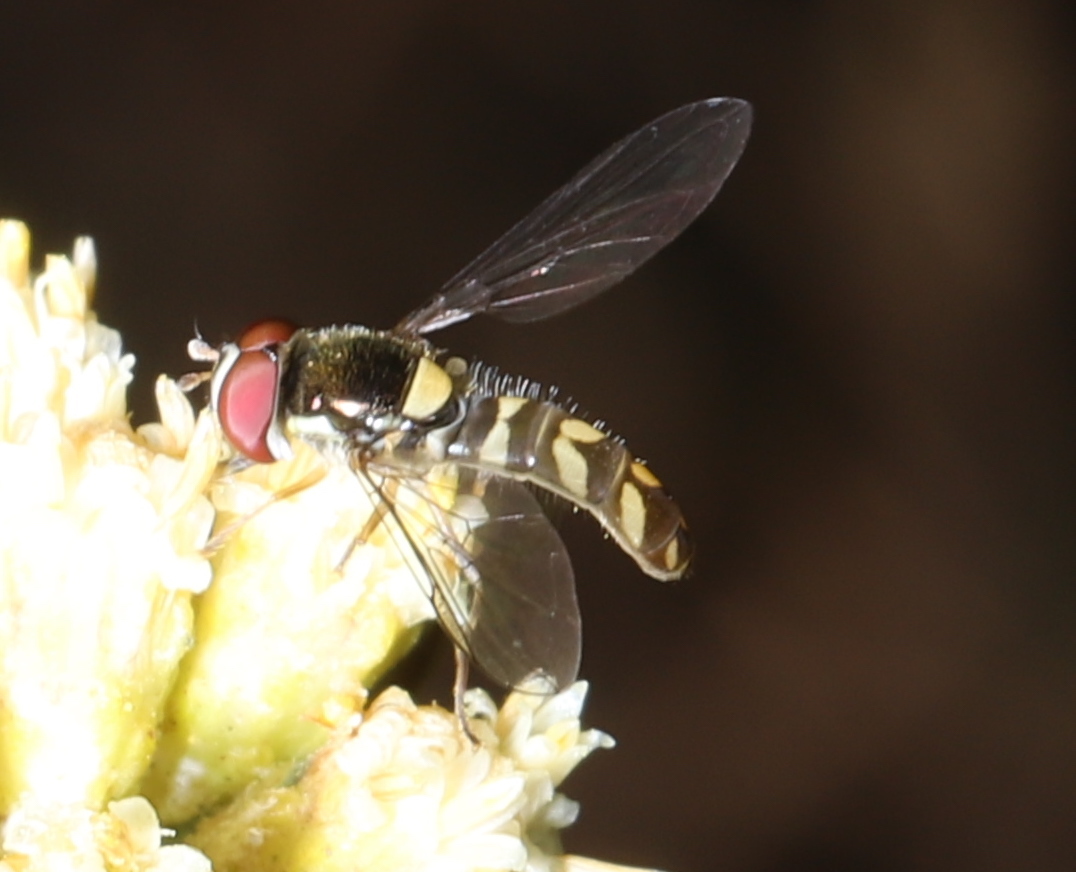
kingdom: Animalia
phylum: Arthropoda
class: Insecta
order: Diptera
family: Syrphidae
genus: Allograpta
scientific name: Allograpta hortensis
